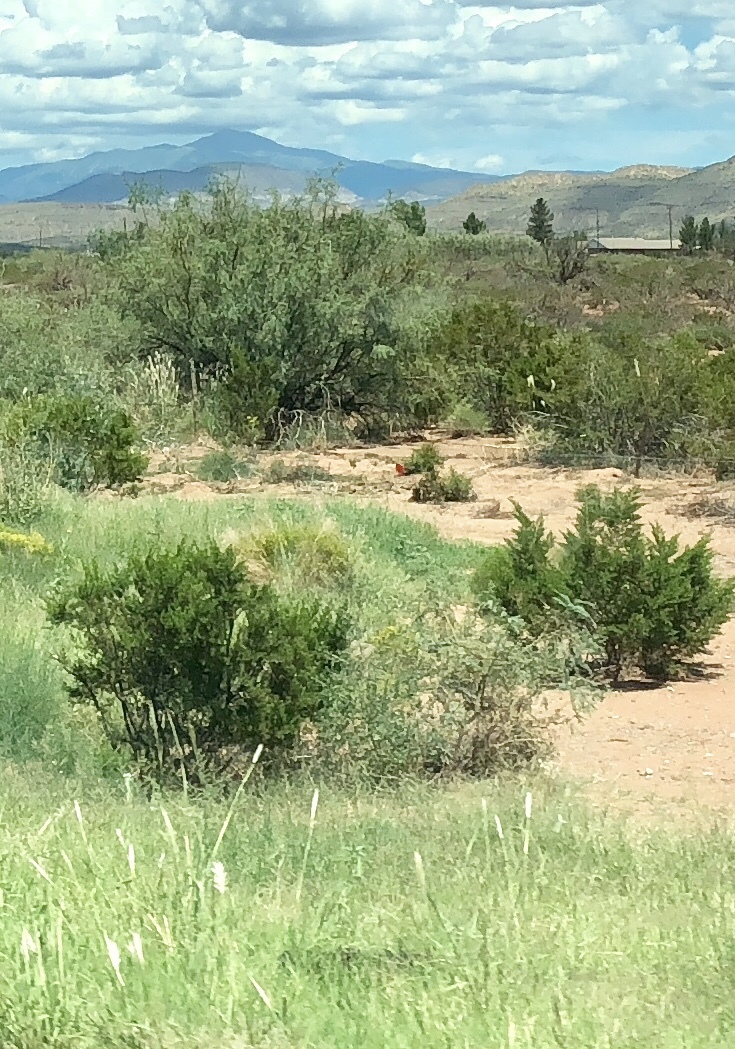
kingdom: Plantae
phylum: Tracheophyta
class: Magnoliopsida
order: Zygophyllales
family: Zygophyllaceae
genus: Larrea
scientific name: Larrea tridentata
